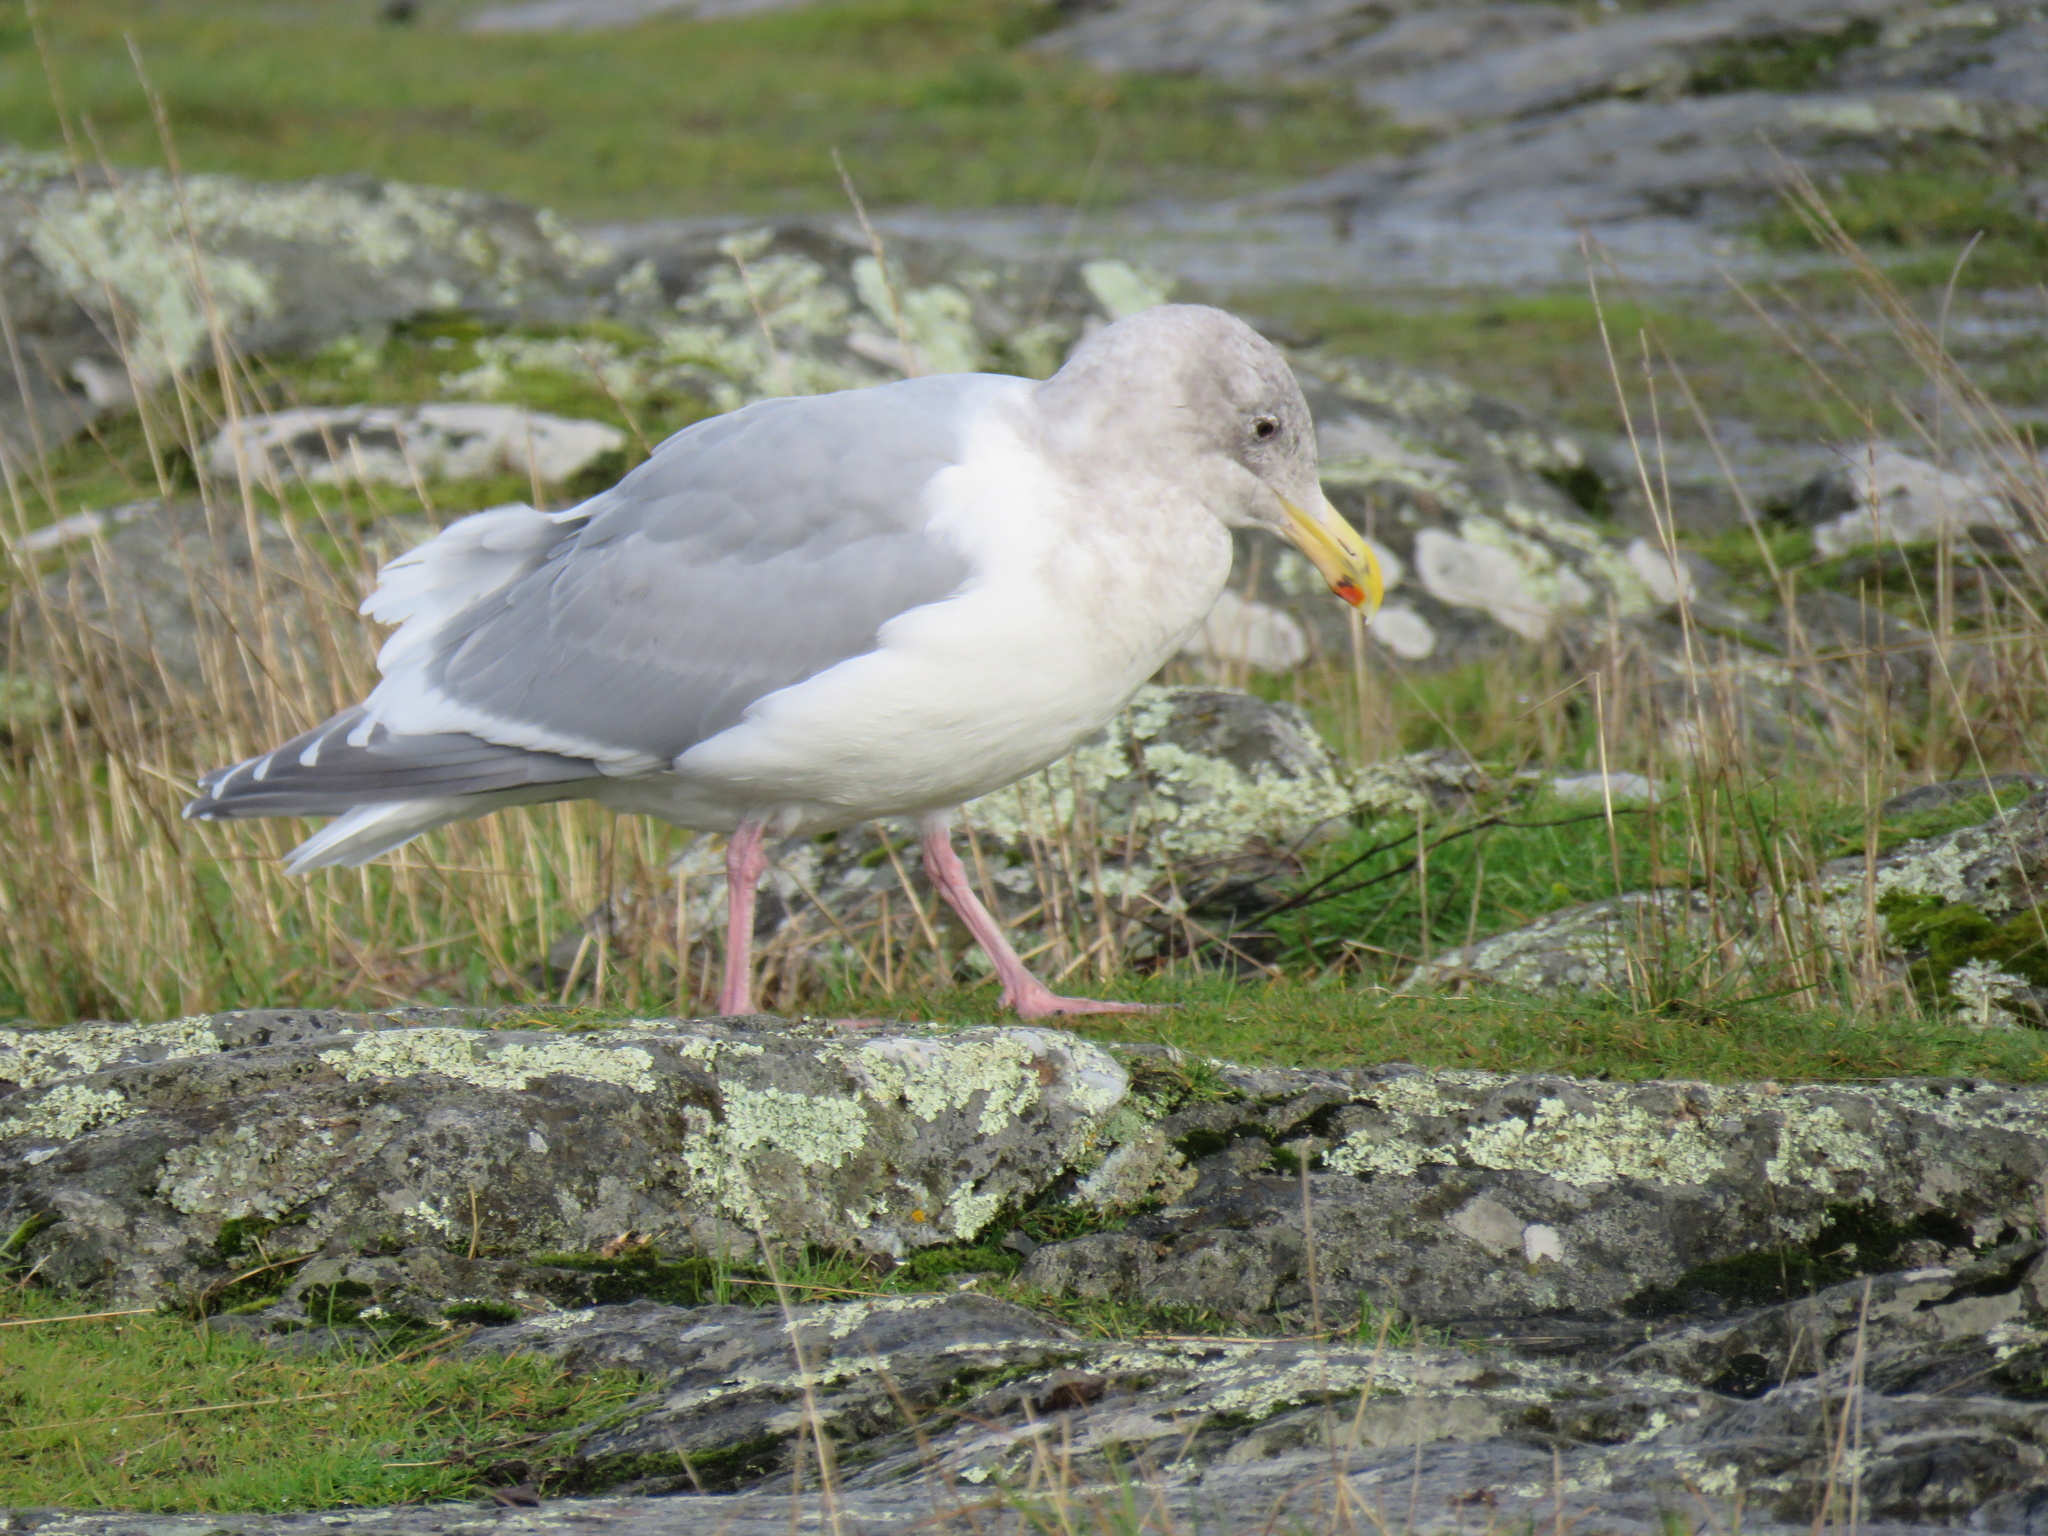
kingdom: Animalia
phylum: Chordata
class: Aves
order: Charadriiformes
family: Laridae
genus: Larus
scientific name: Larus
